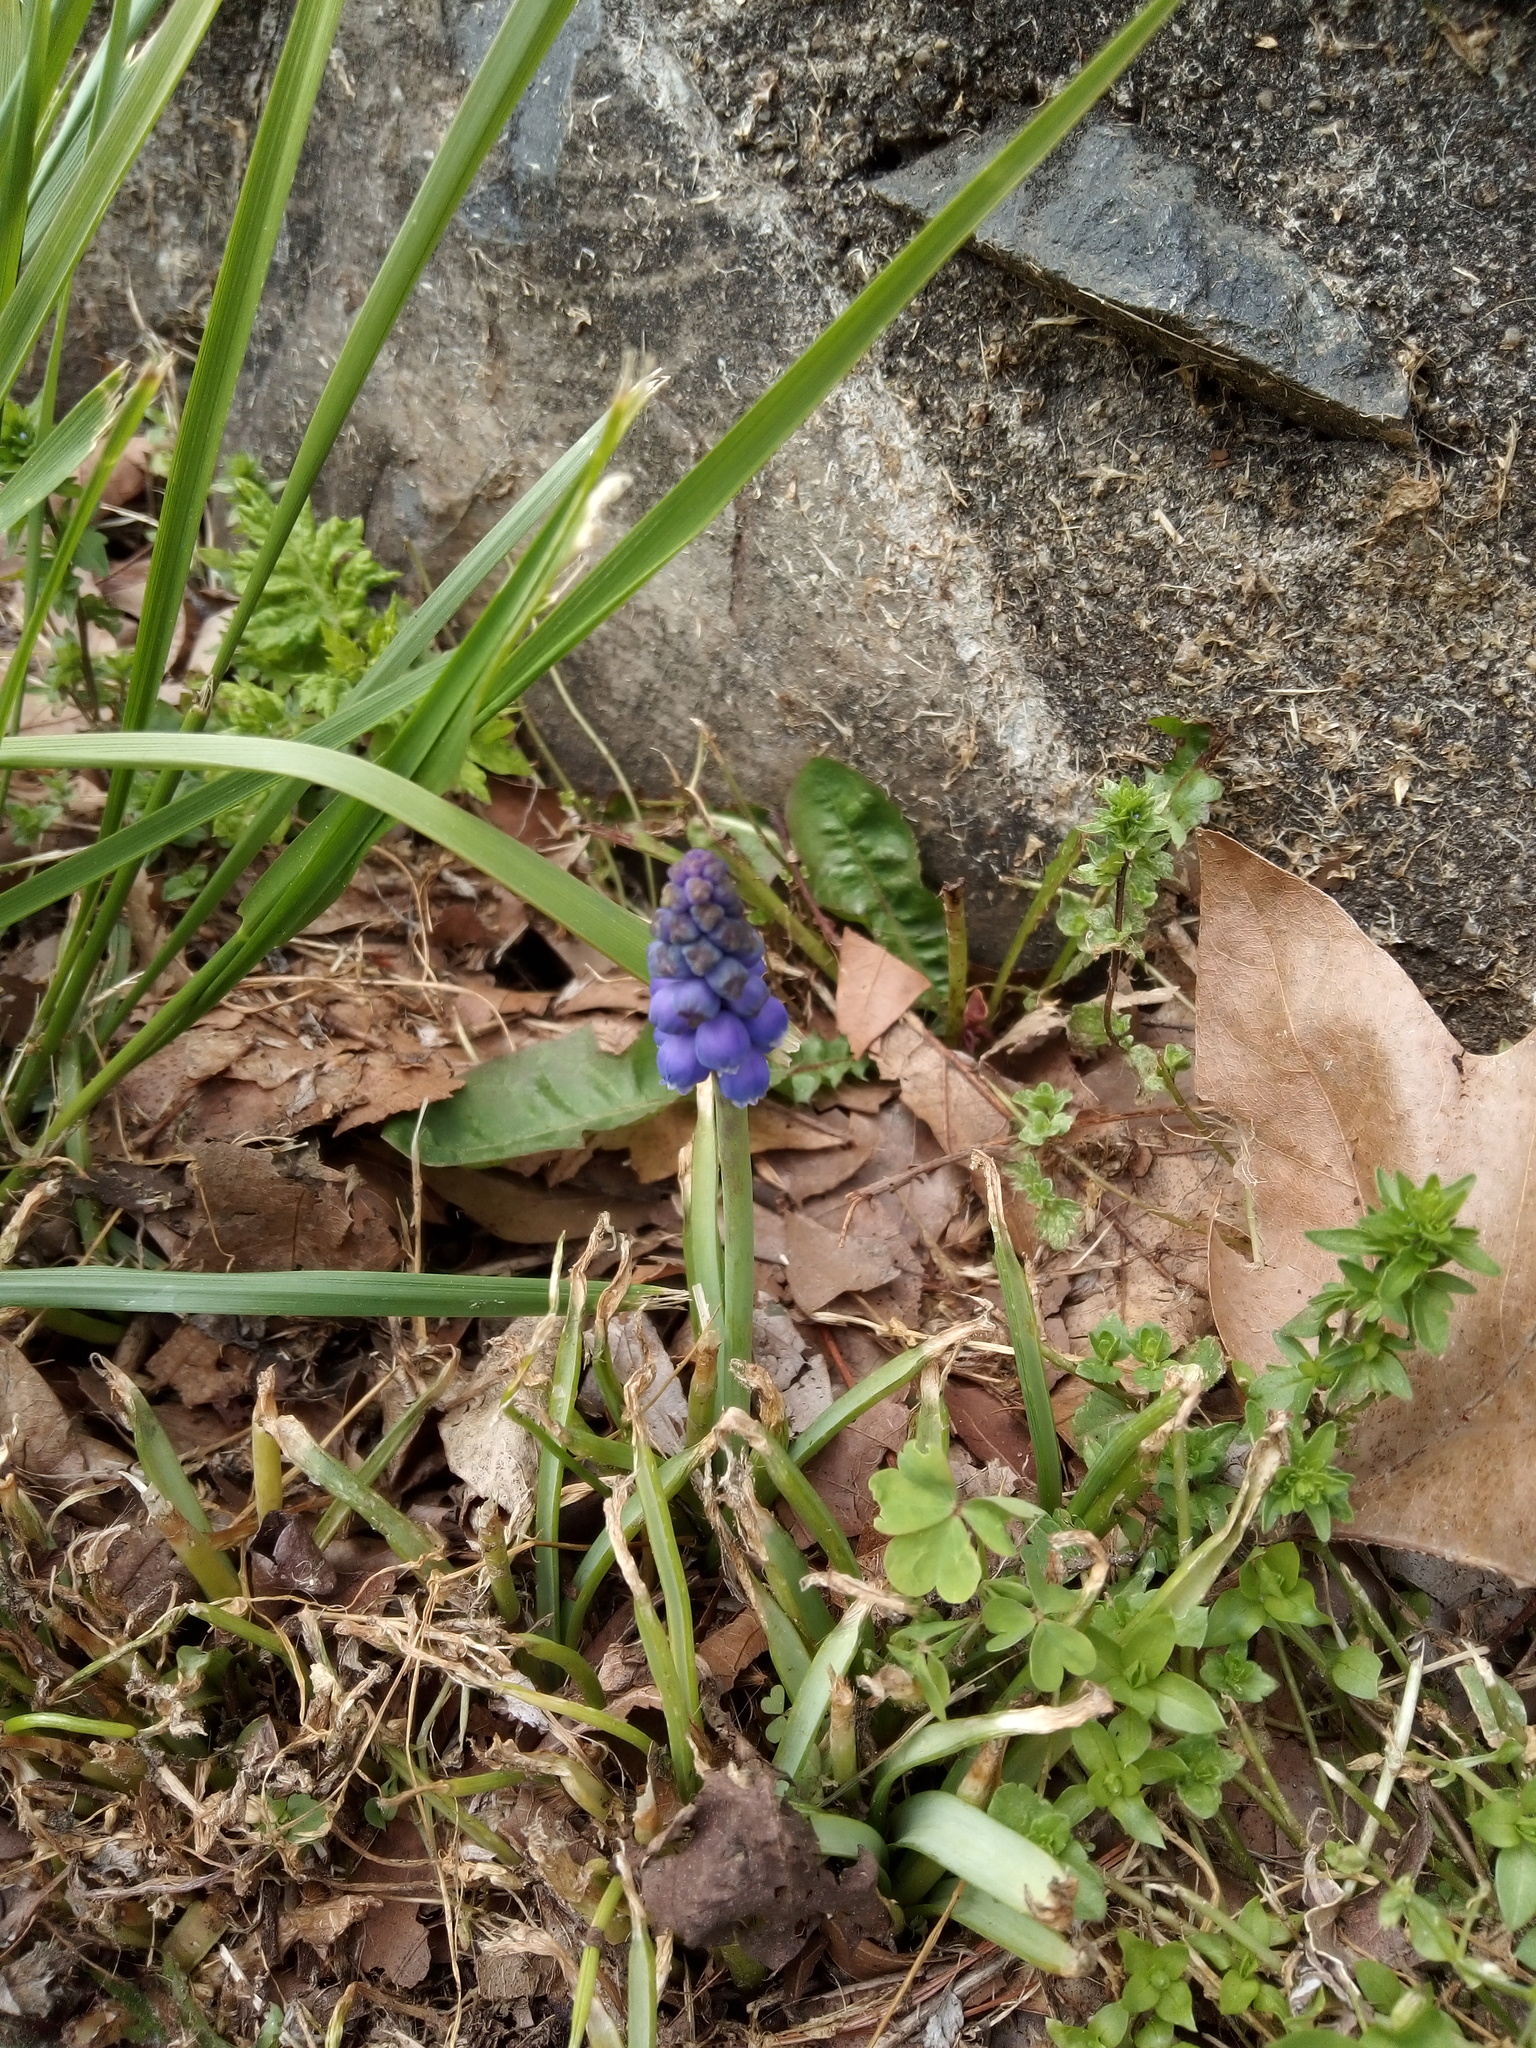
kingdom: Plantae
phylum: Tracheophyta
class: Liliopsida
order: Asparagales
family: Asparagaceae
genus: Muscari
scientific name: Muscari botryoides
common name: Compact grape-hyacinth
